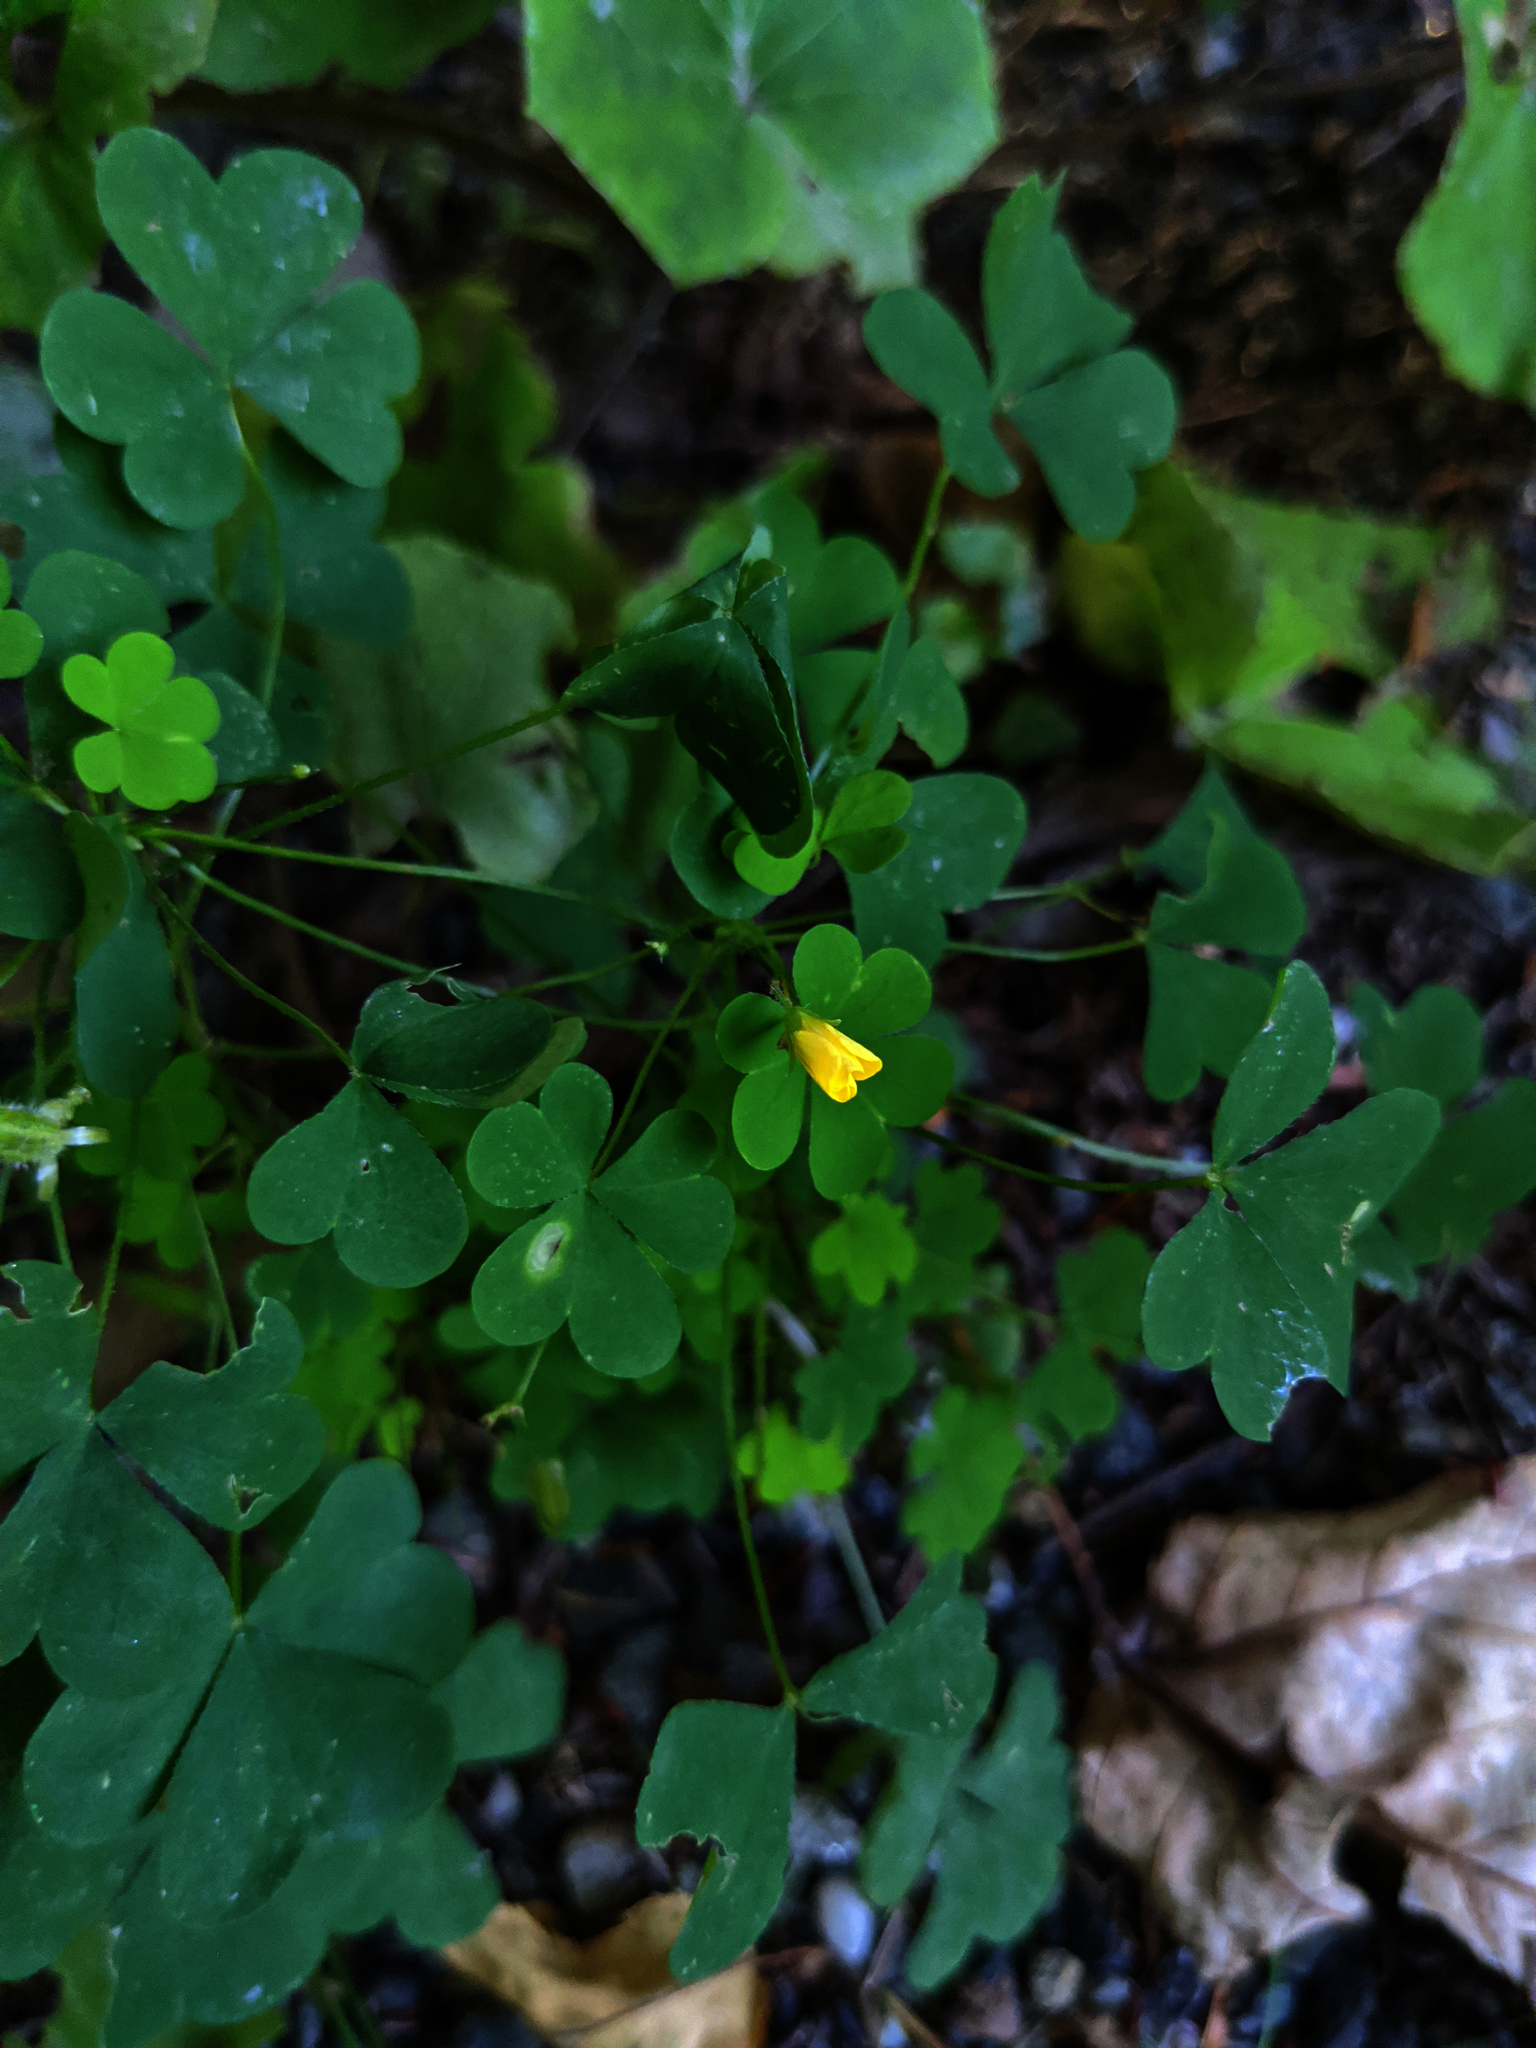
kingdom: Plantae
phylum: Tracheophyta
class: Magnoliopsida
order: Oxalidales
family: Oxalidaceae
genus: Oxalis
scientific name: Oxalis stricta
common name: Upright yellow-sorrel
